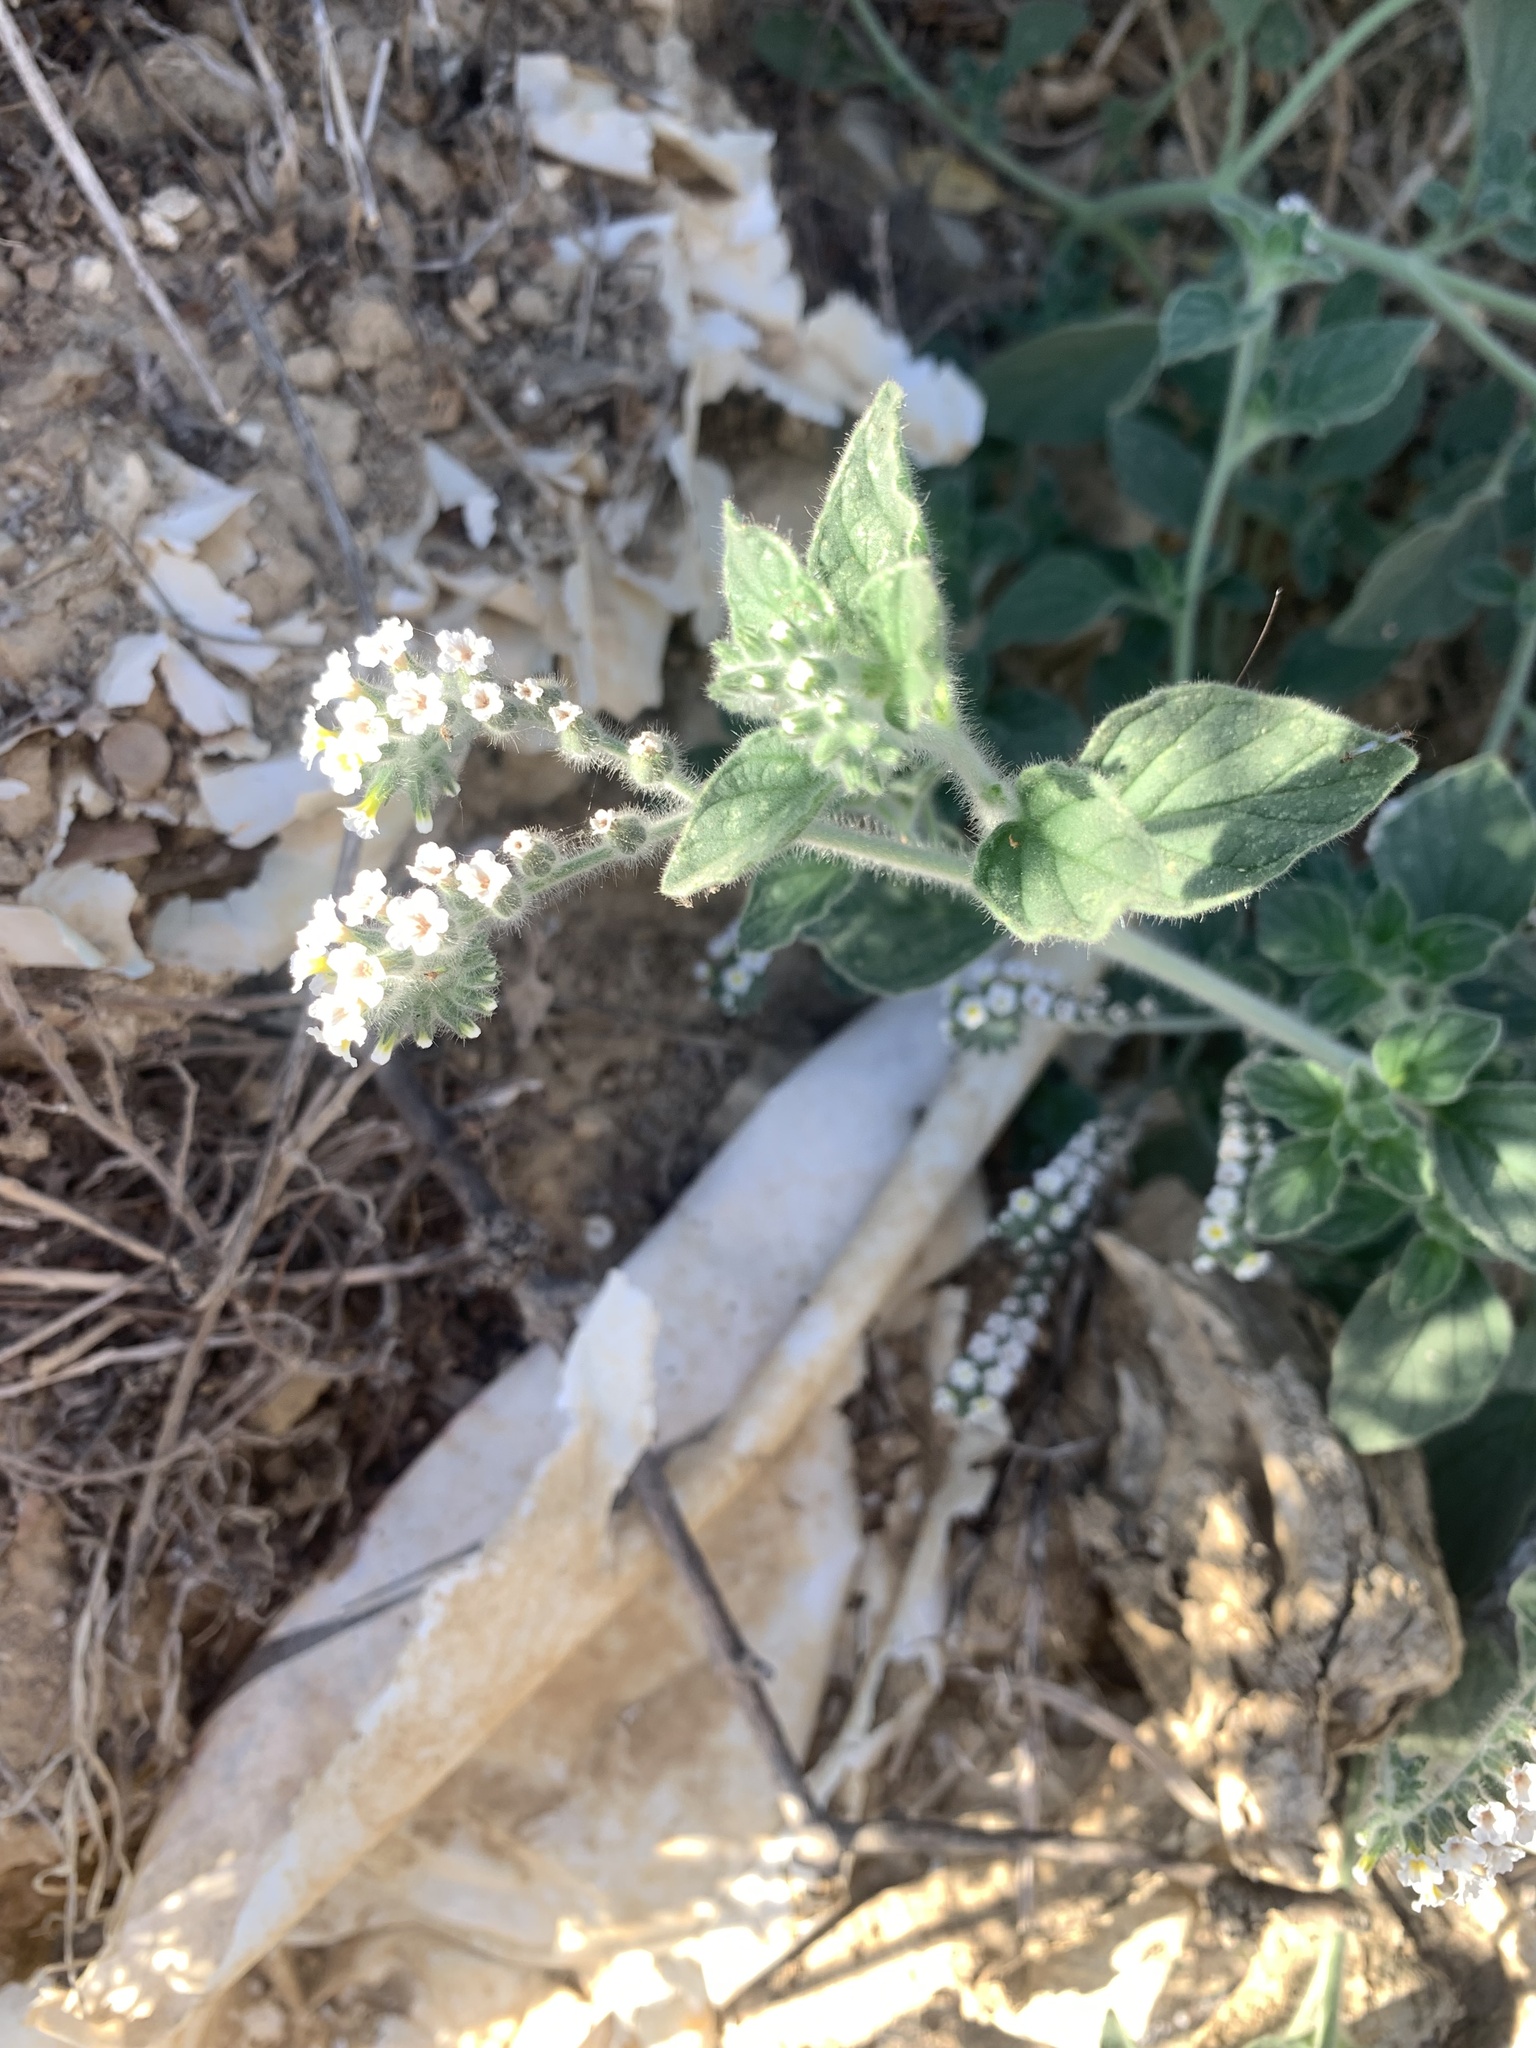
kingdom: Plantae
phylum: Tracheophyta
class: Magnoliopsida
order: Boraginales
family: Heliotropiaceae
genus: Heliotropium
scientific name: Heliotropium hirsutissimum
